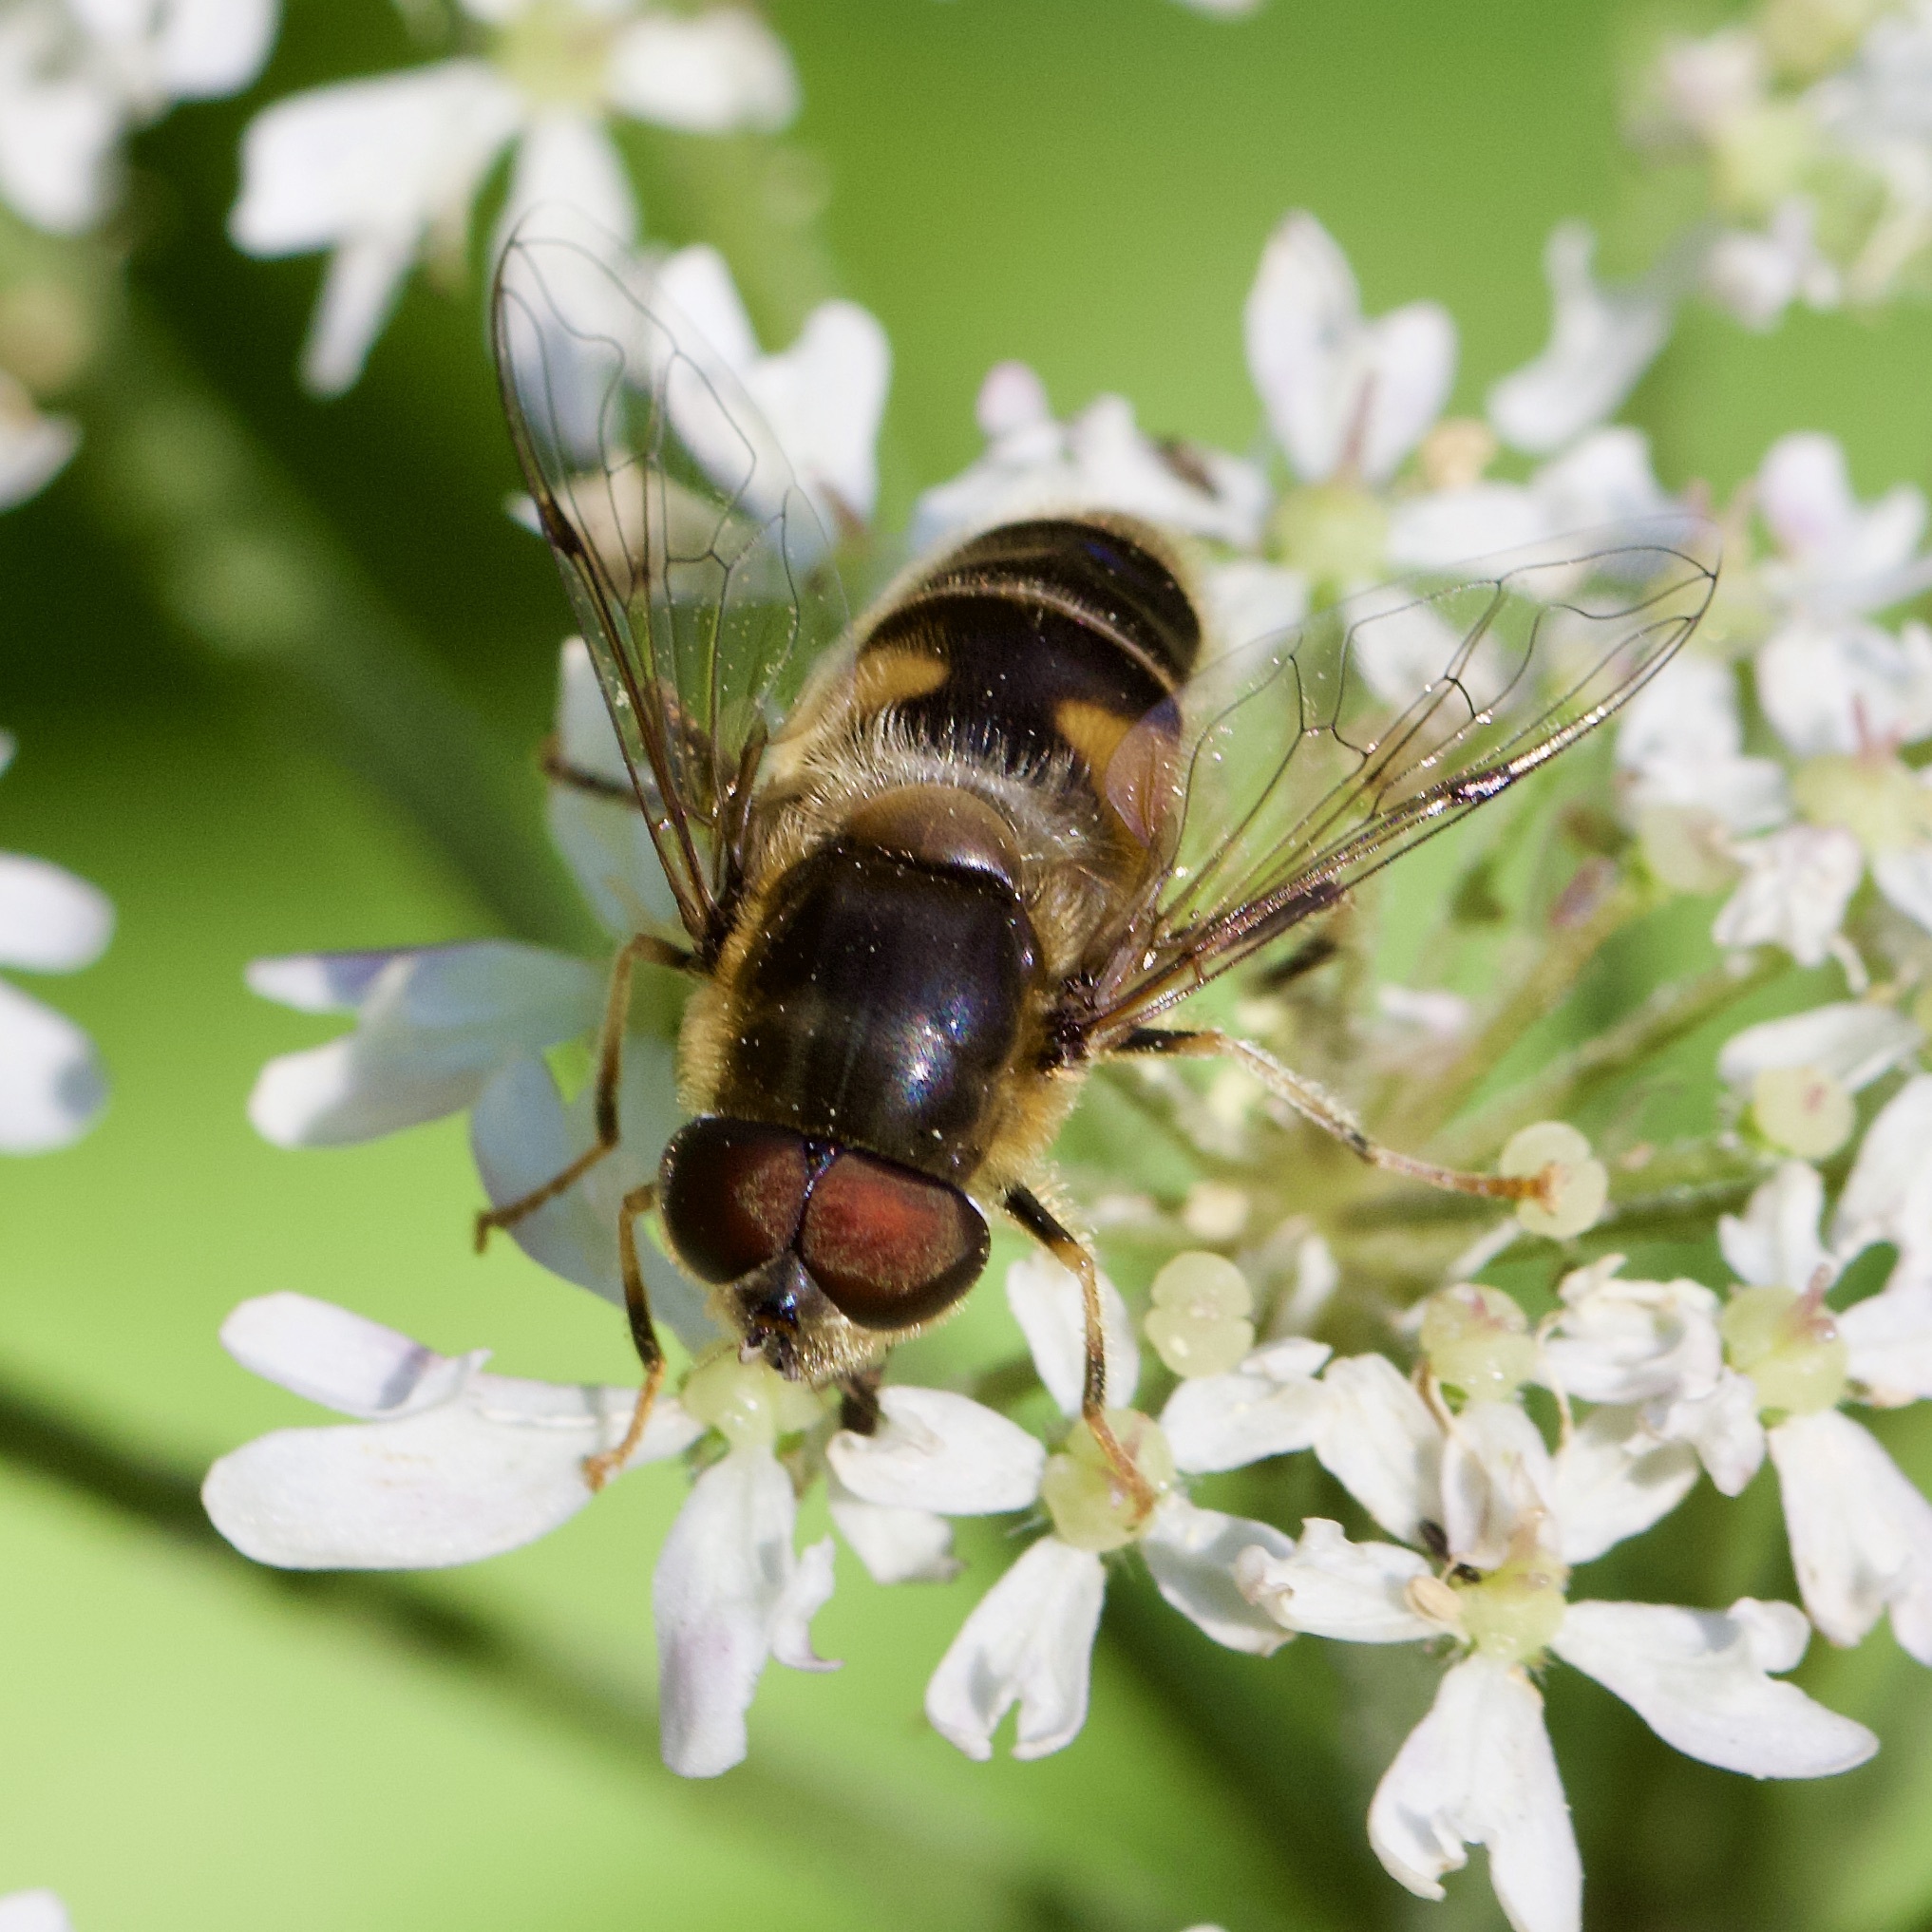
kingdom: Animalia
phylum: Arthropoda
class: Insecta
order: Diptera
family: Syrphidae
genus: Eristalis
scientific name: Eristalis pertinax
